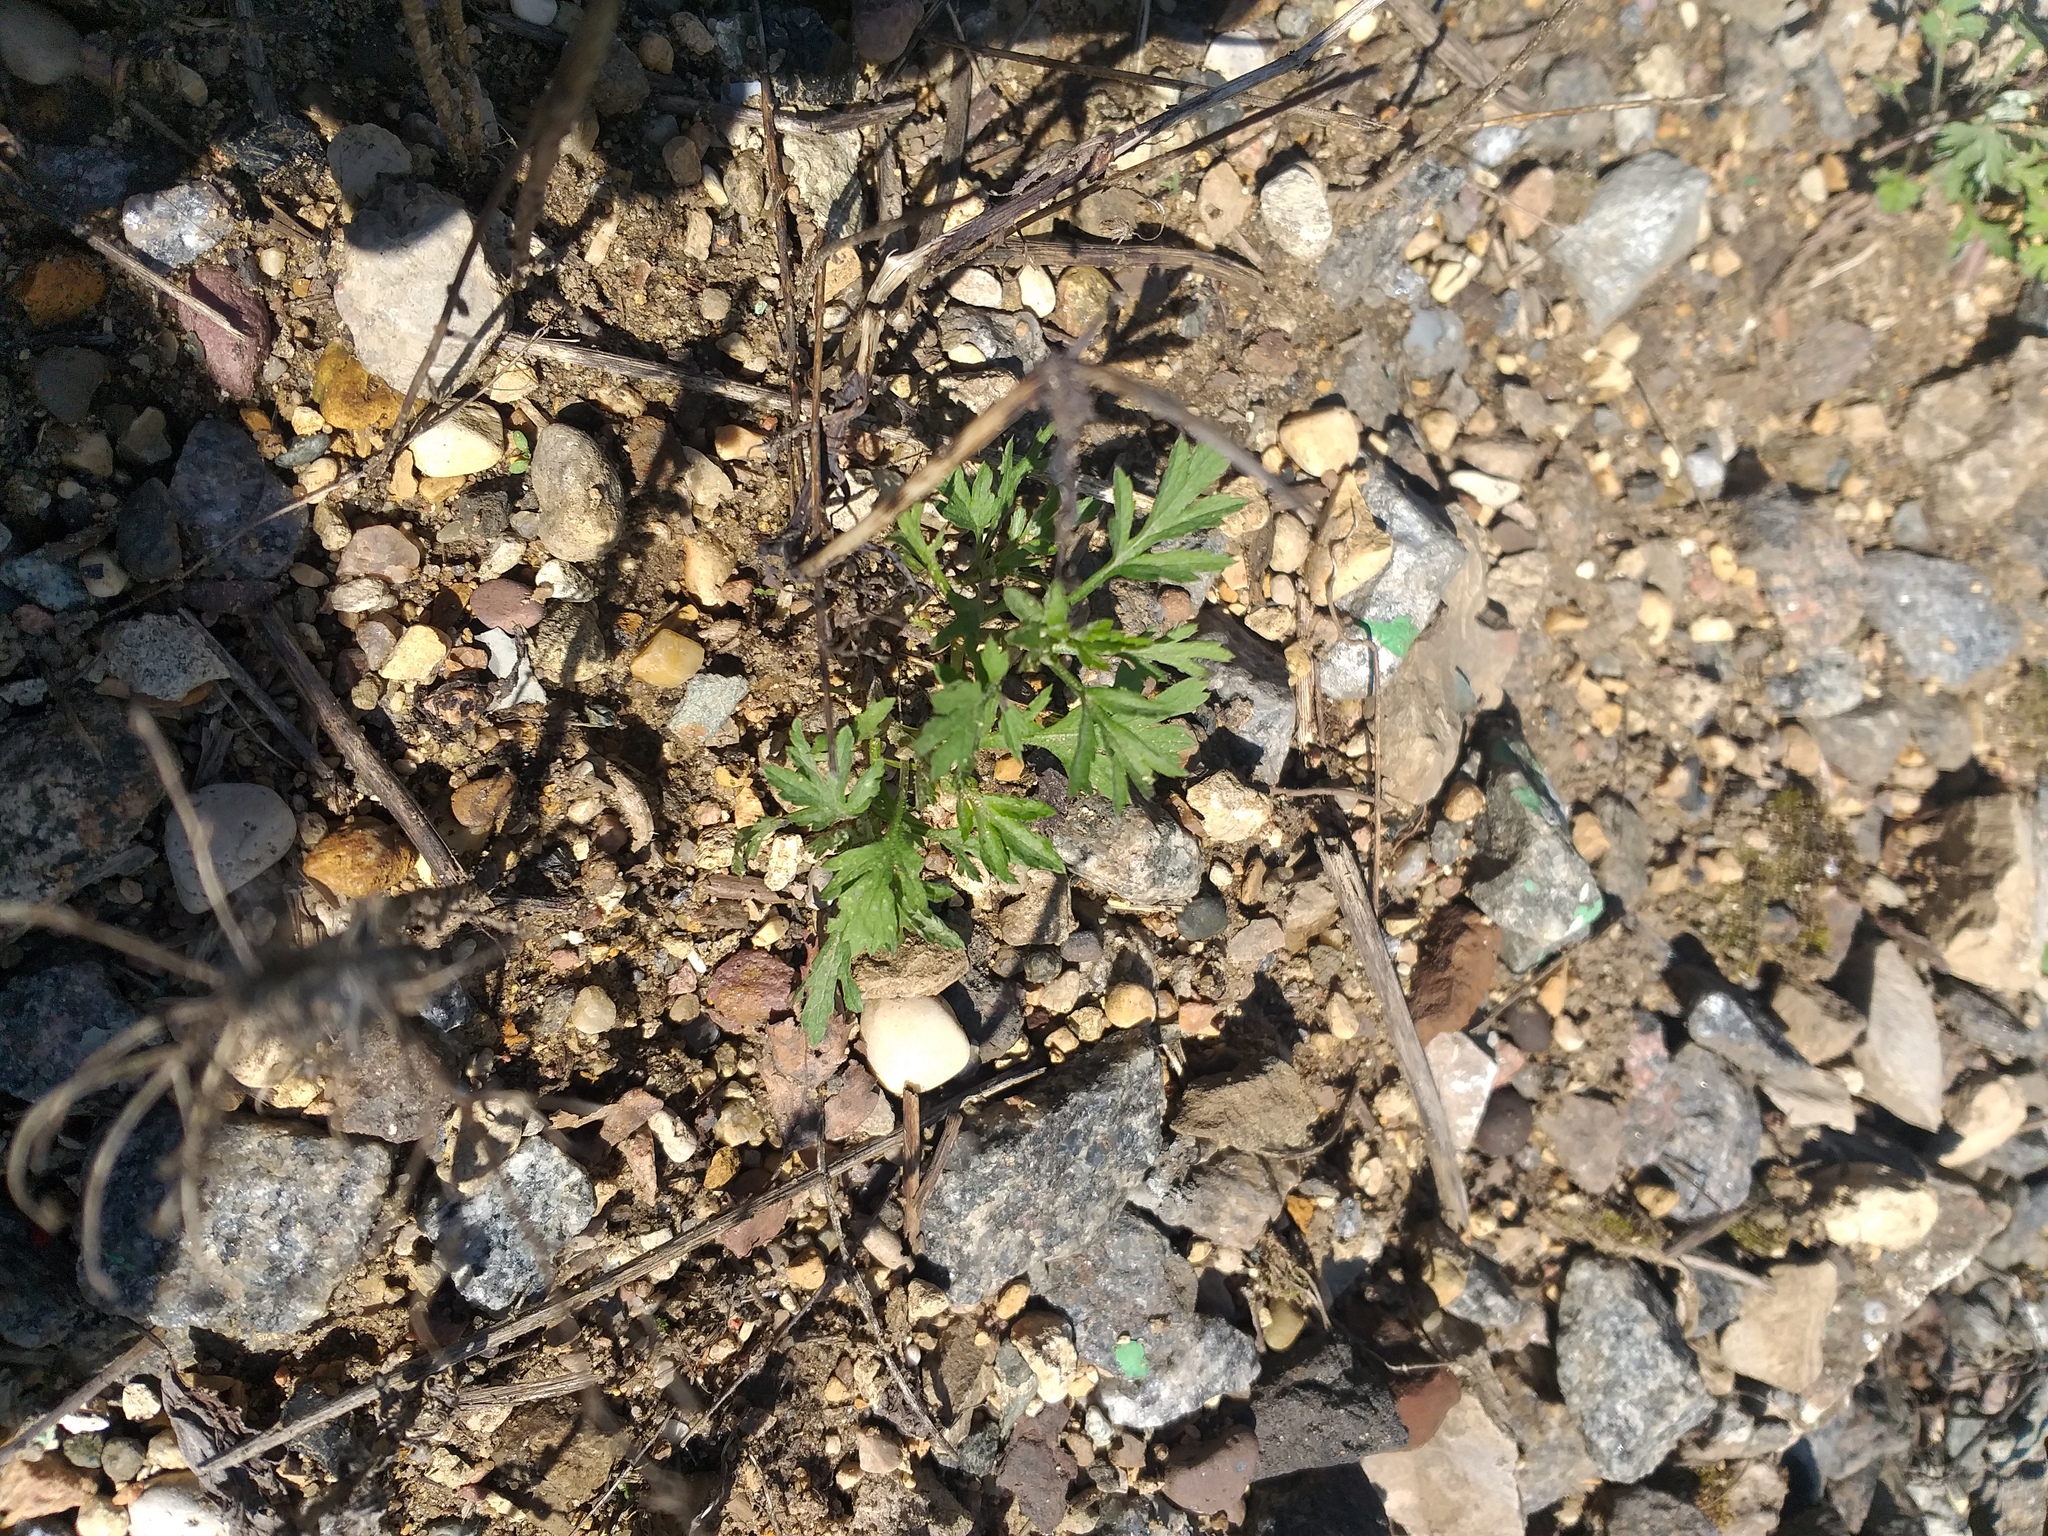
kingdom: Plantae
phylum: Tracheophyta
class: Magnoliopsida
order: Asterales
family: Asteraceae
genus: Artemisia
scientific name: Artemisia vulgaris
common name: Mugwort
